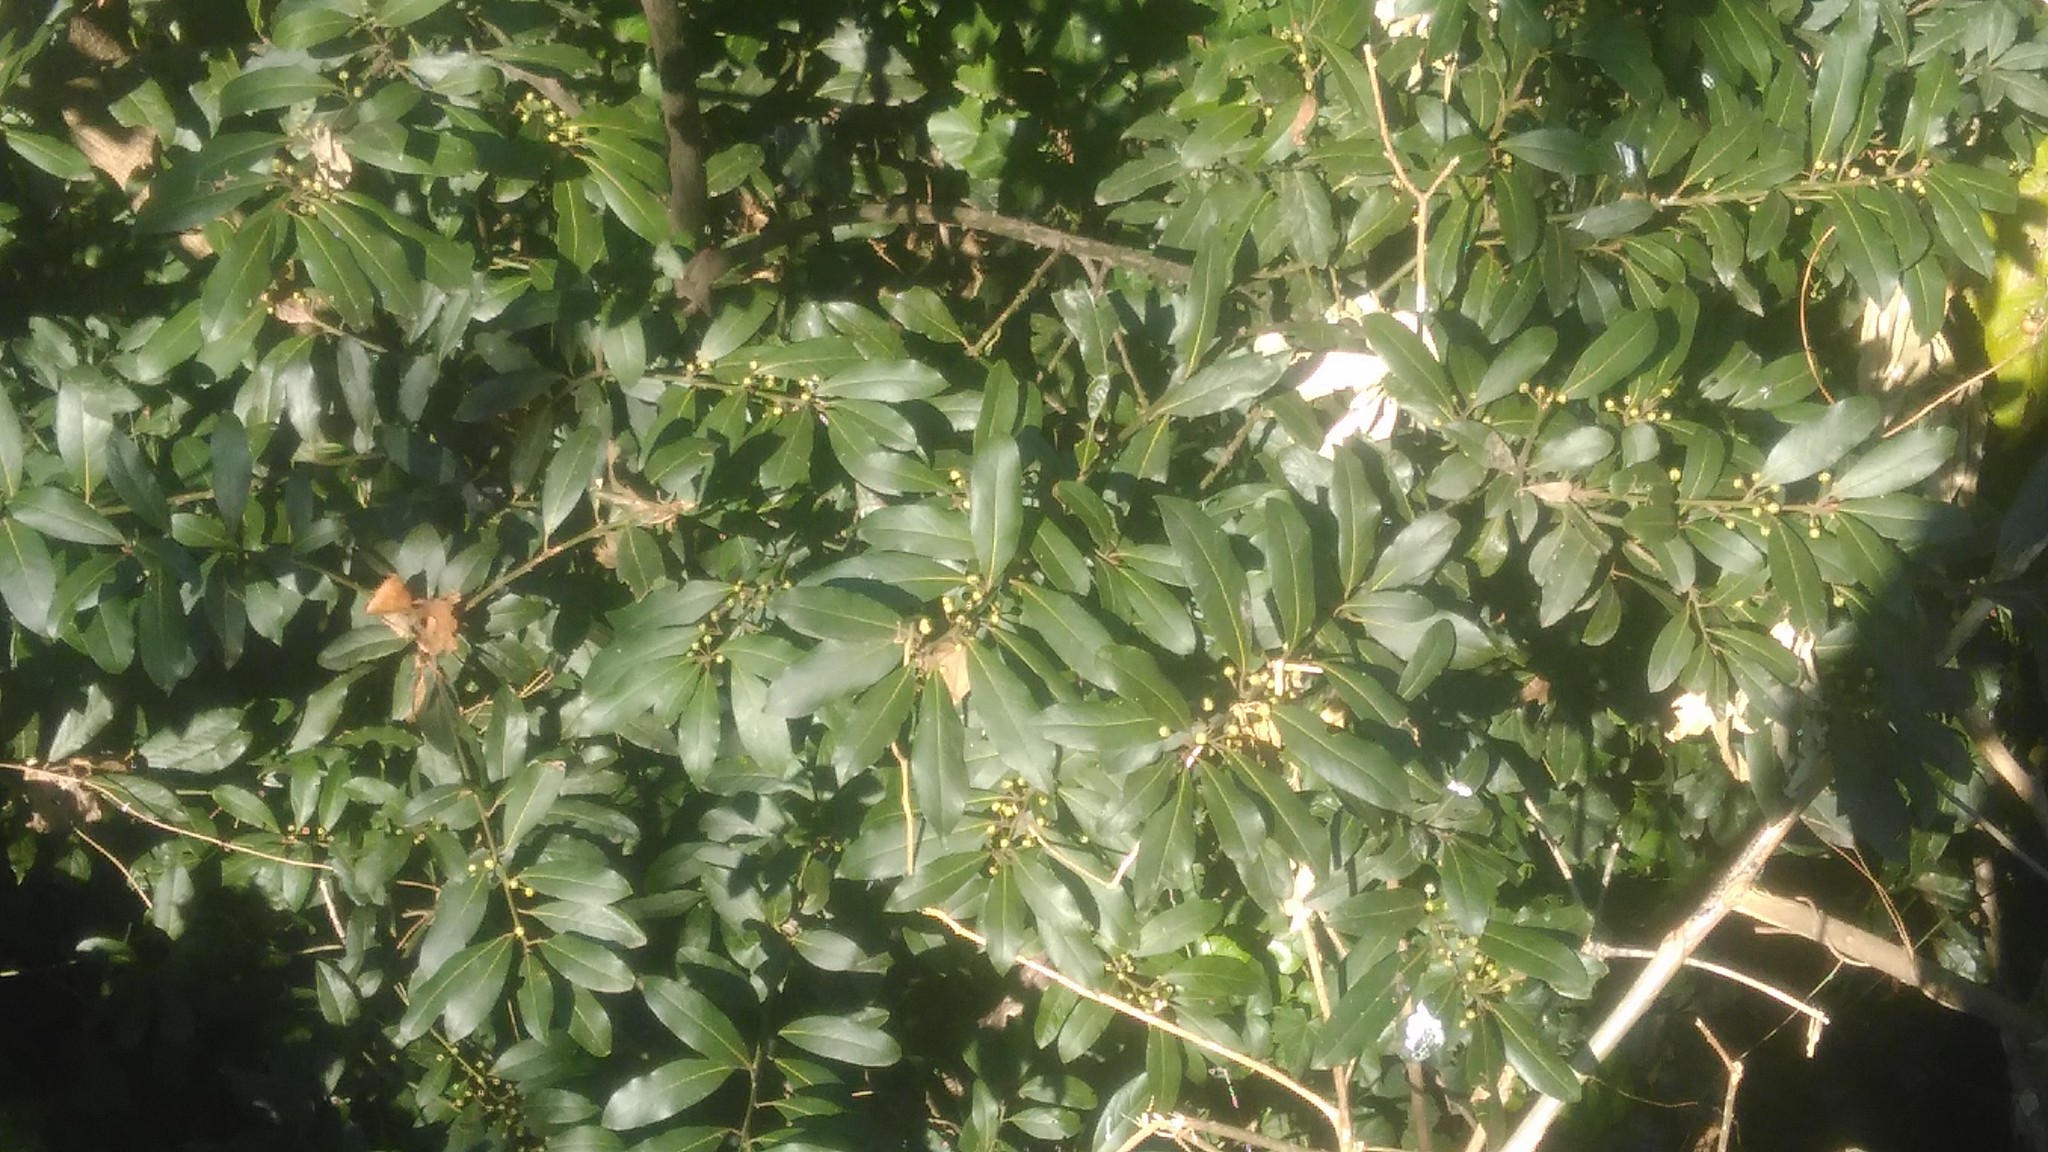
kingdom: Plantae
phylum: Tracheophyta
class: Magnoliopsida
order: Laurales
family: Lauraceae
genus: Laurus
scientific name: Laurus nobilis
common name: Bay
